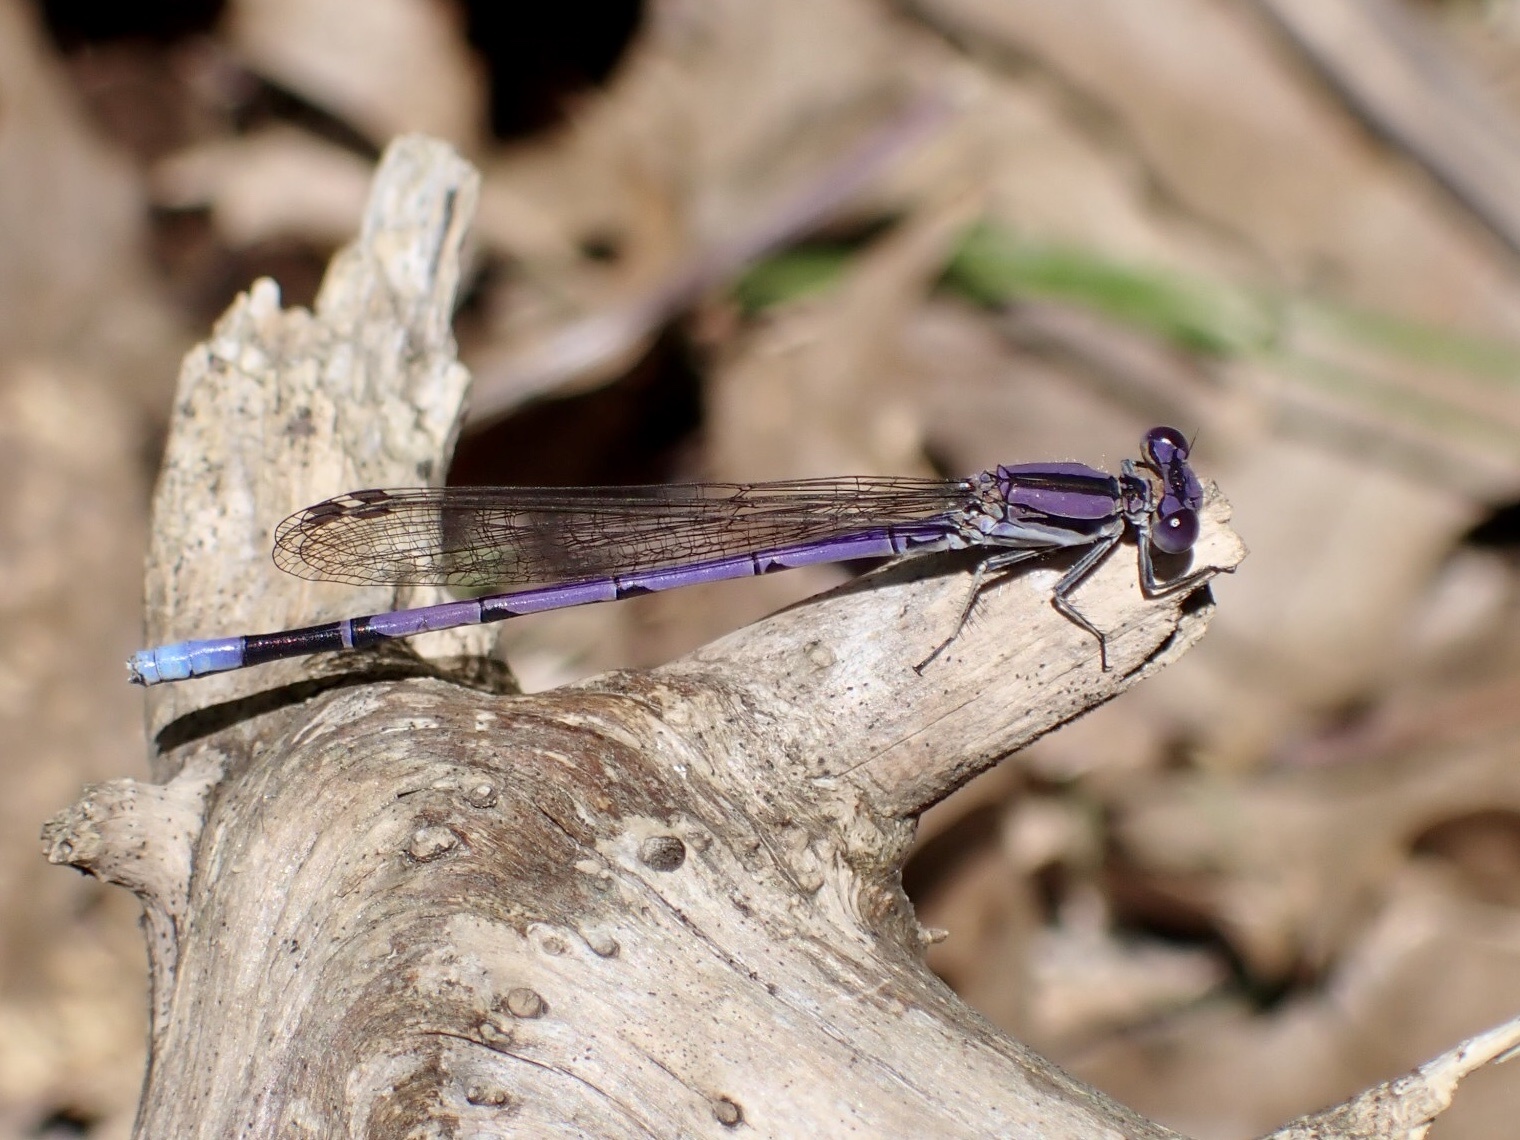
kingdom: Animalia
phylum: Arthropoda
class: Insecta
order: Odonata
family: Coenagrionidae
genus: Argia
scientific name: Argia fumipennis
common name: Variable dancer
